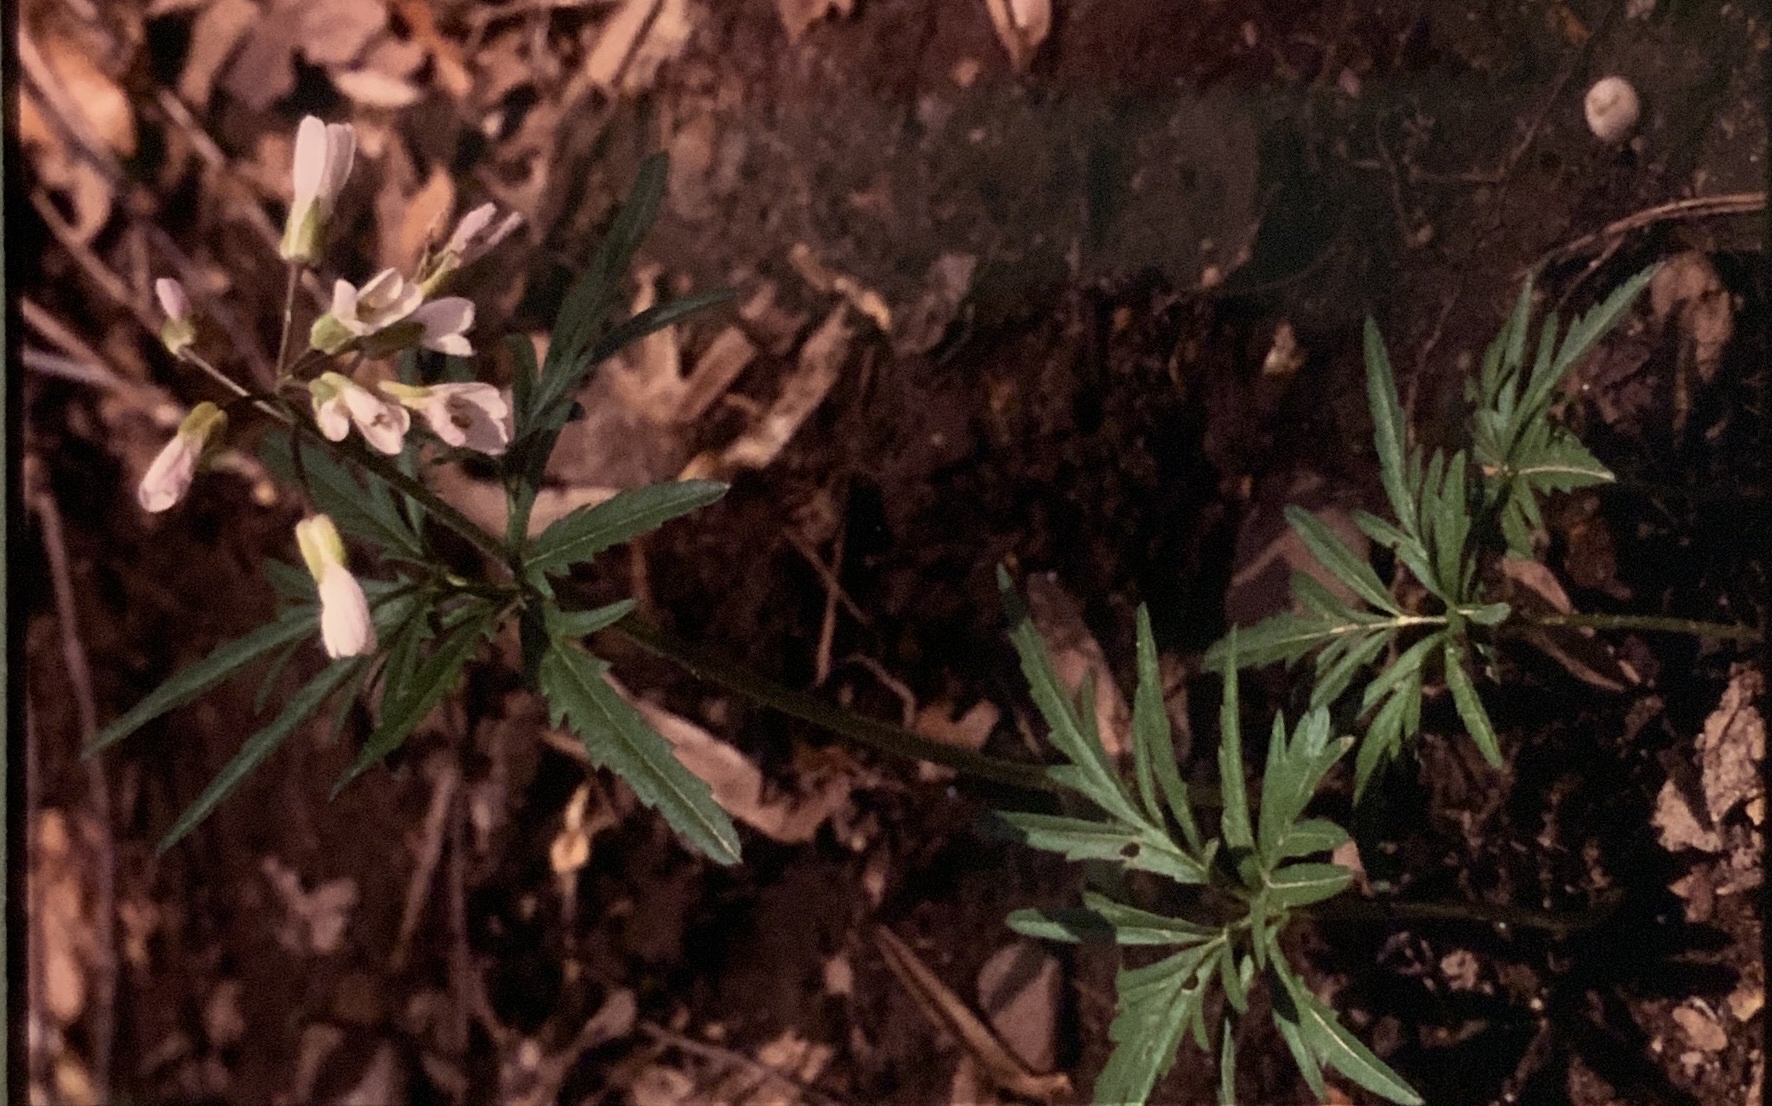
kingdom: Plantae
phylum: Tracheophyta
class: Magnoliopsida
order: Brassicales
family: Brassicaceae
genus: Cardamine
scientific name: Cardamine concatenata
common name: Cut-leaf toothcup
